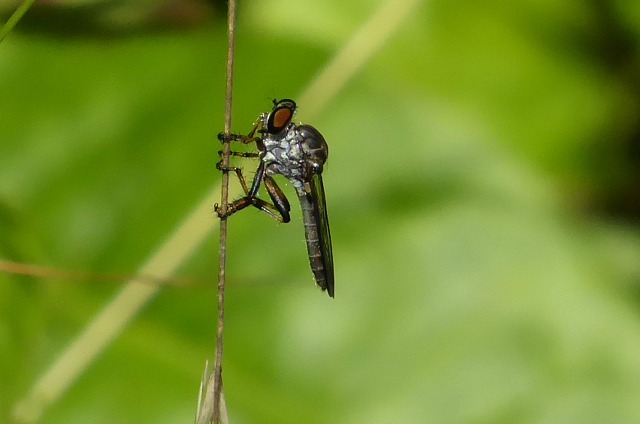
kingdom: Animalia
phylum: Arthropoda
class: Insecta
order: Diptera
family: Asilidae
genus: Ommatius
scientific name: Ommatius tibialis
